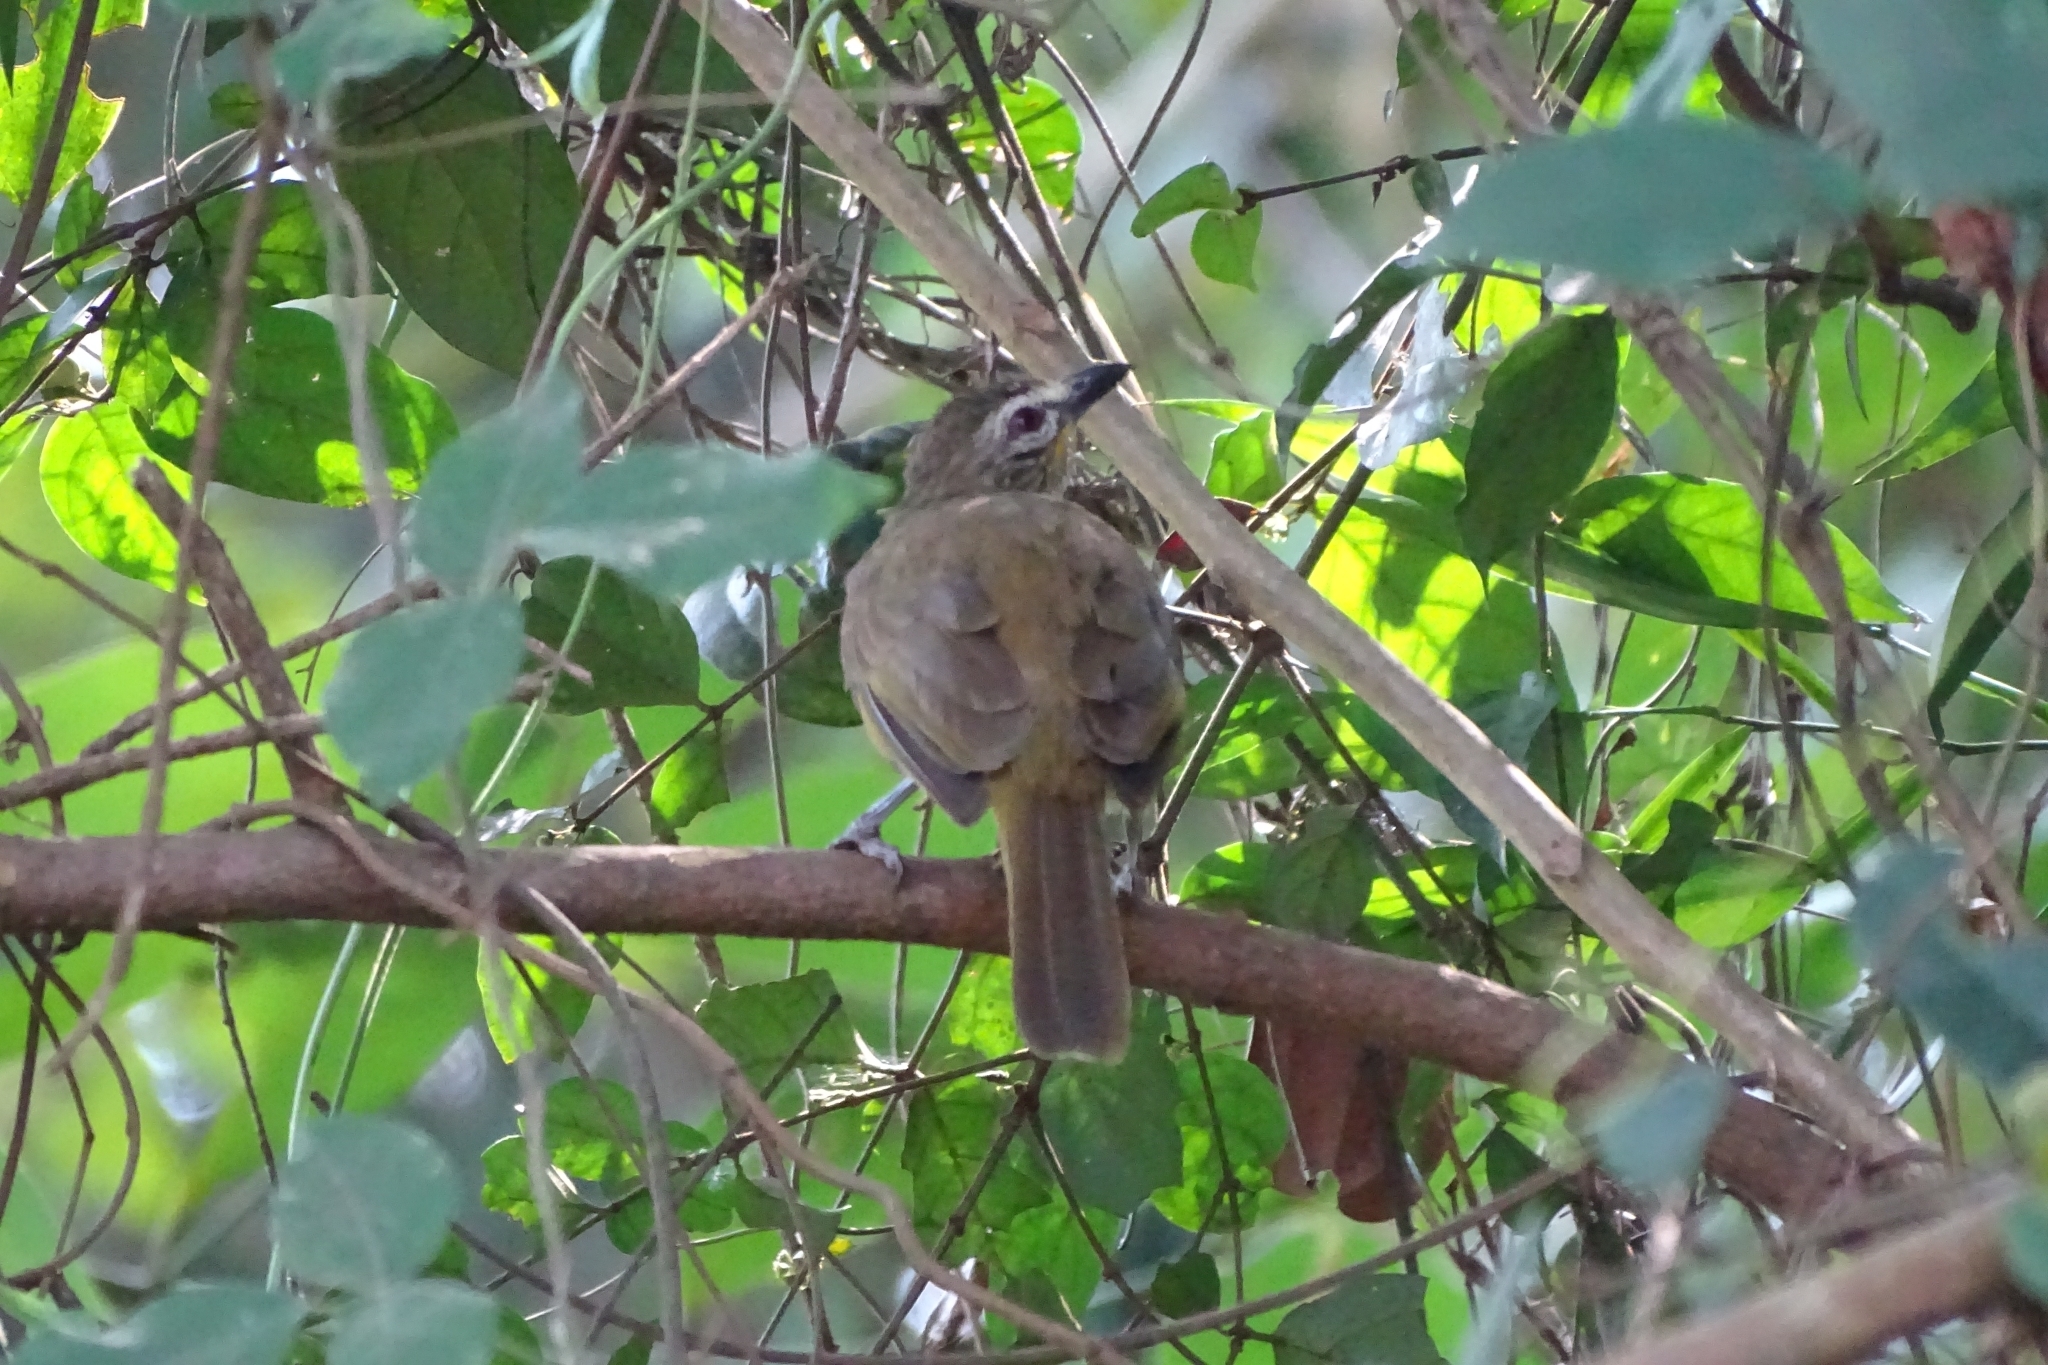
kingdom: Animalia
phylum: Chordata
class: Aves
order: Passeriformes
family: Pycnonotidae
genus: Pycnonotus
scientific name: Pycnonotus luteolus
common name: White-browed bulbul
